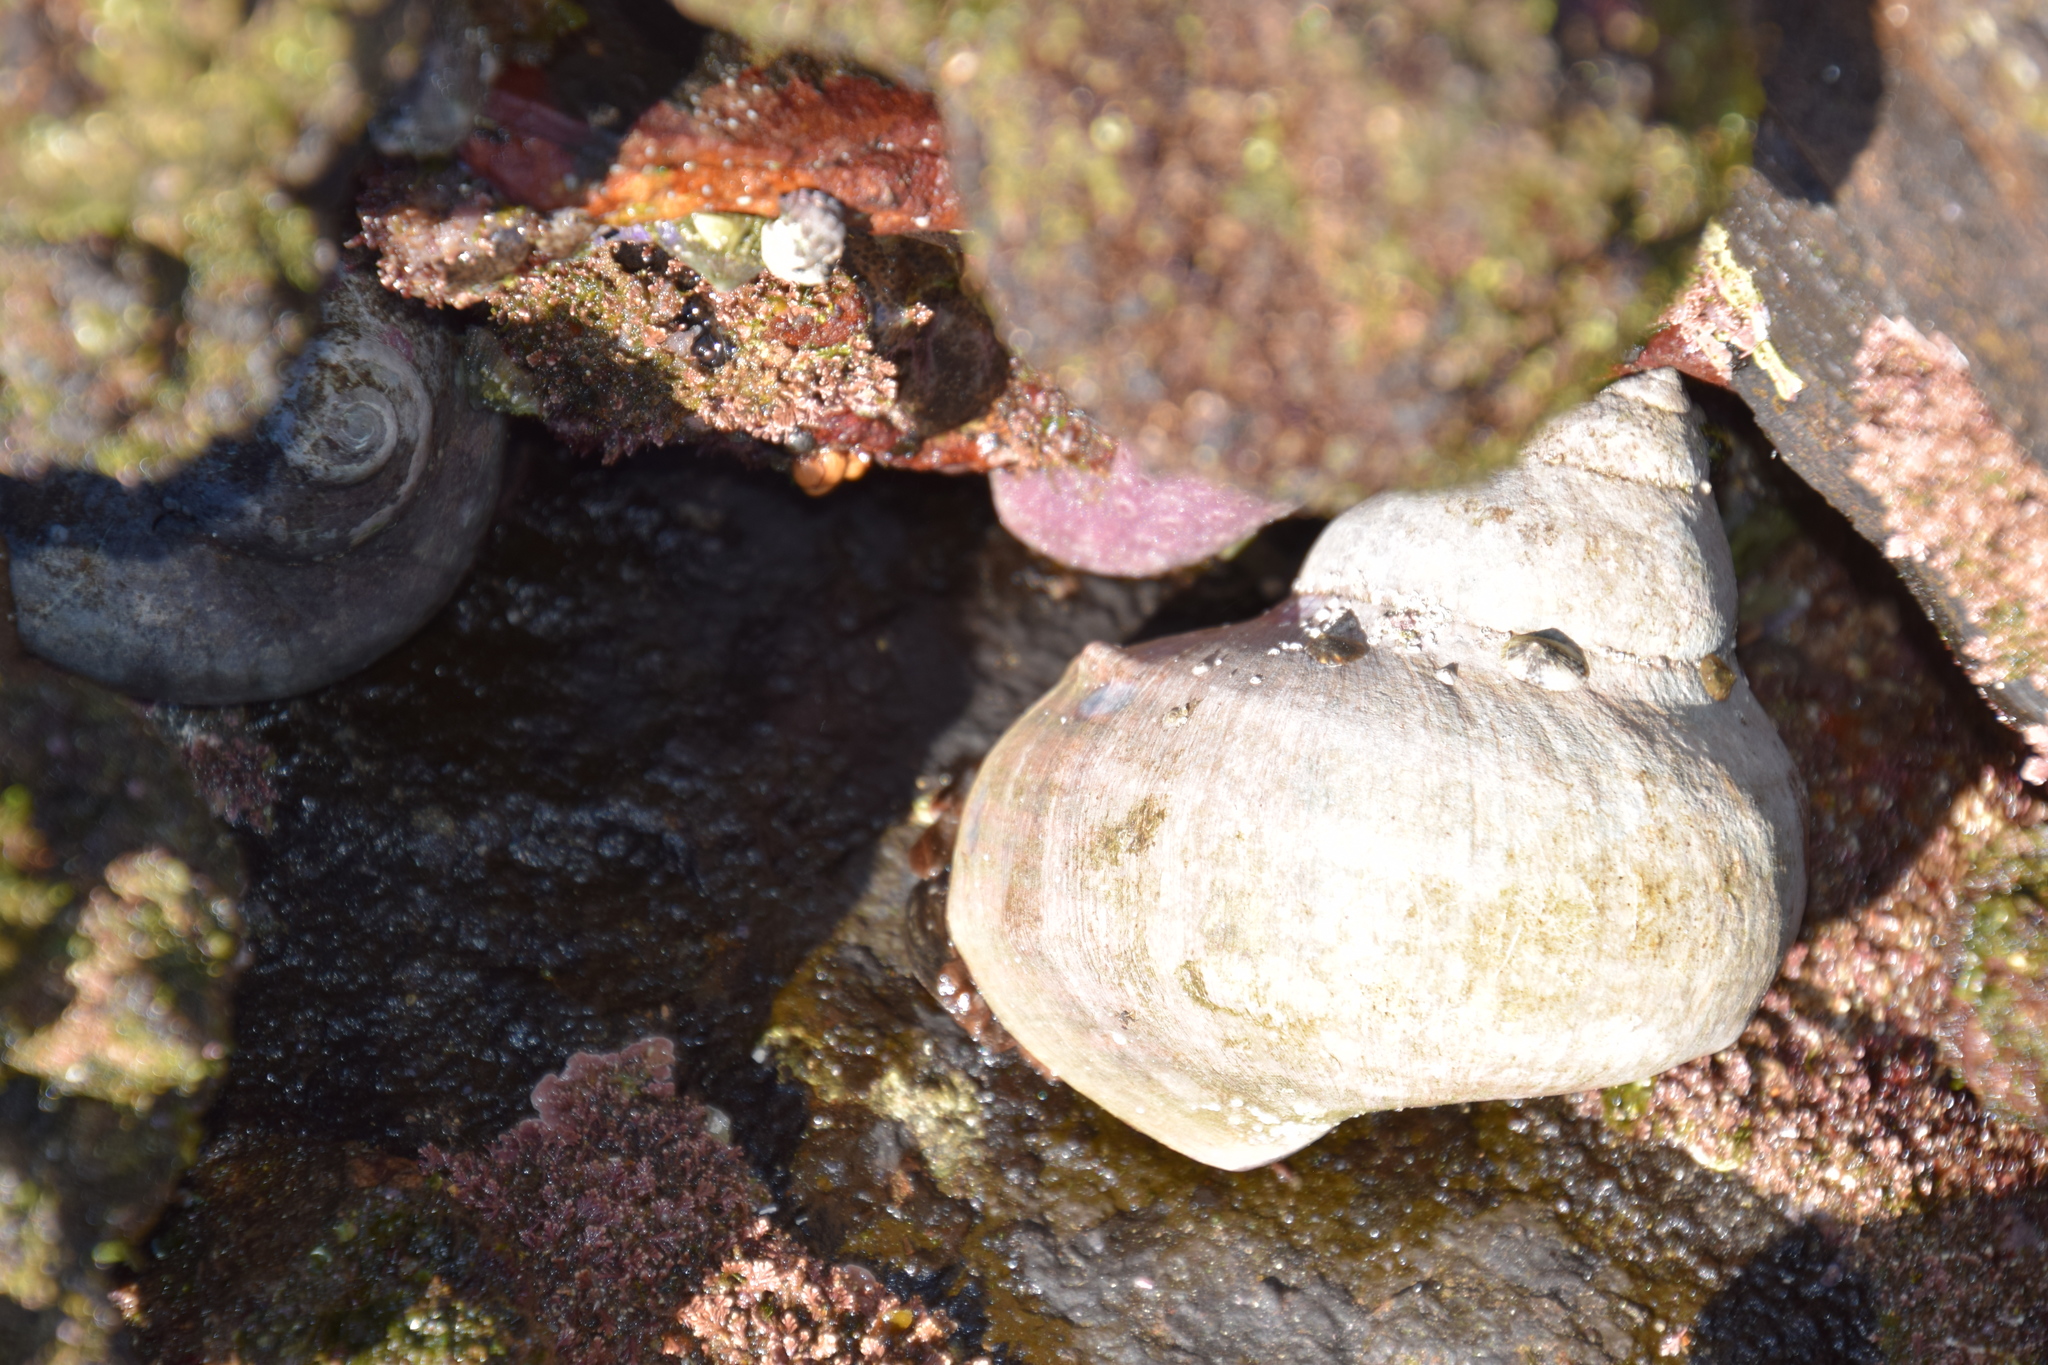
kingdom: Animalia
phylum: Mollusca
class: Gastropoda
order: Trochida
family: Turbinidae
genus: Turbo
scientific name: Turbo militaris
